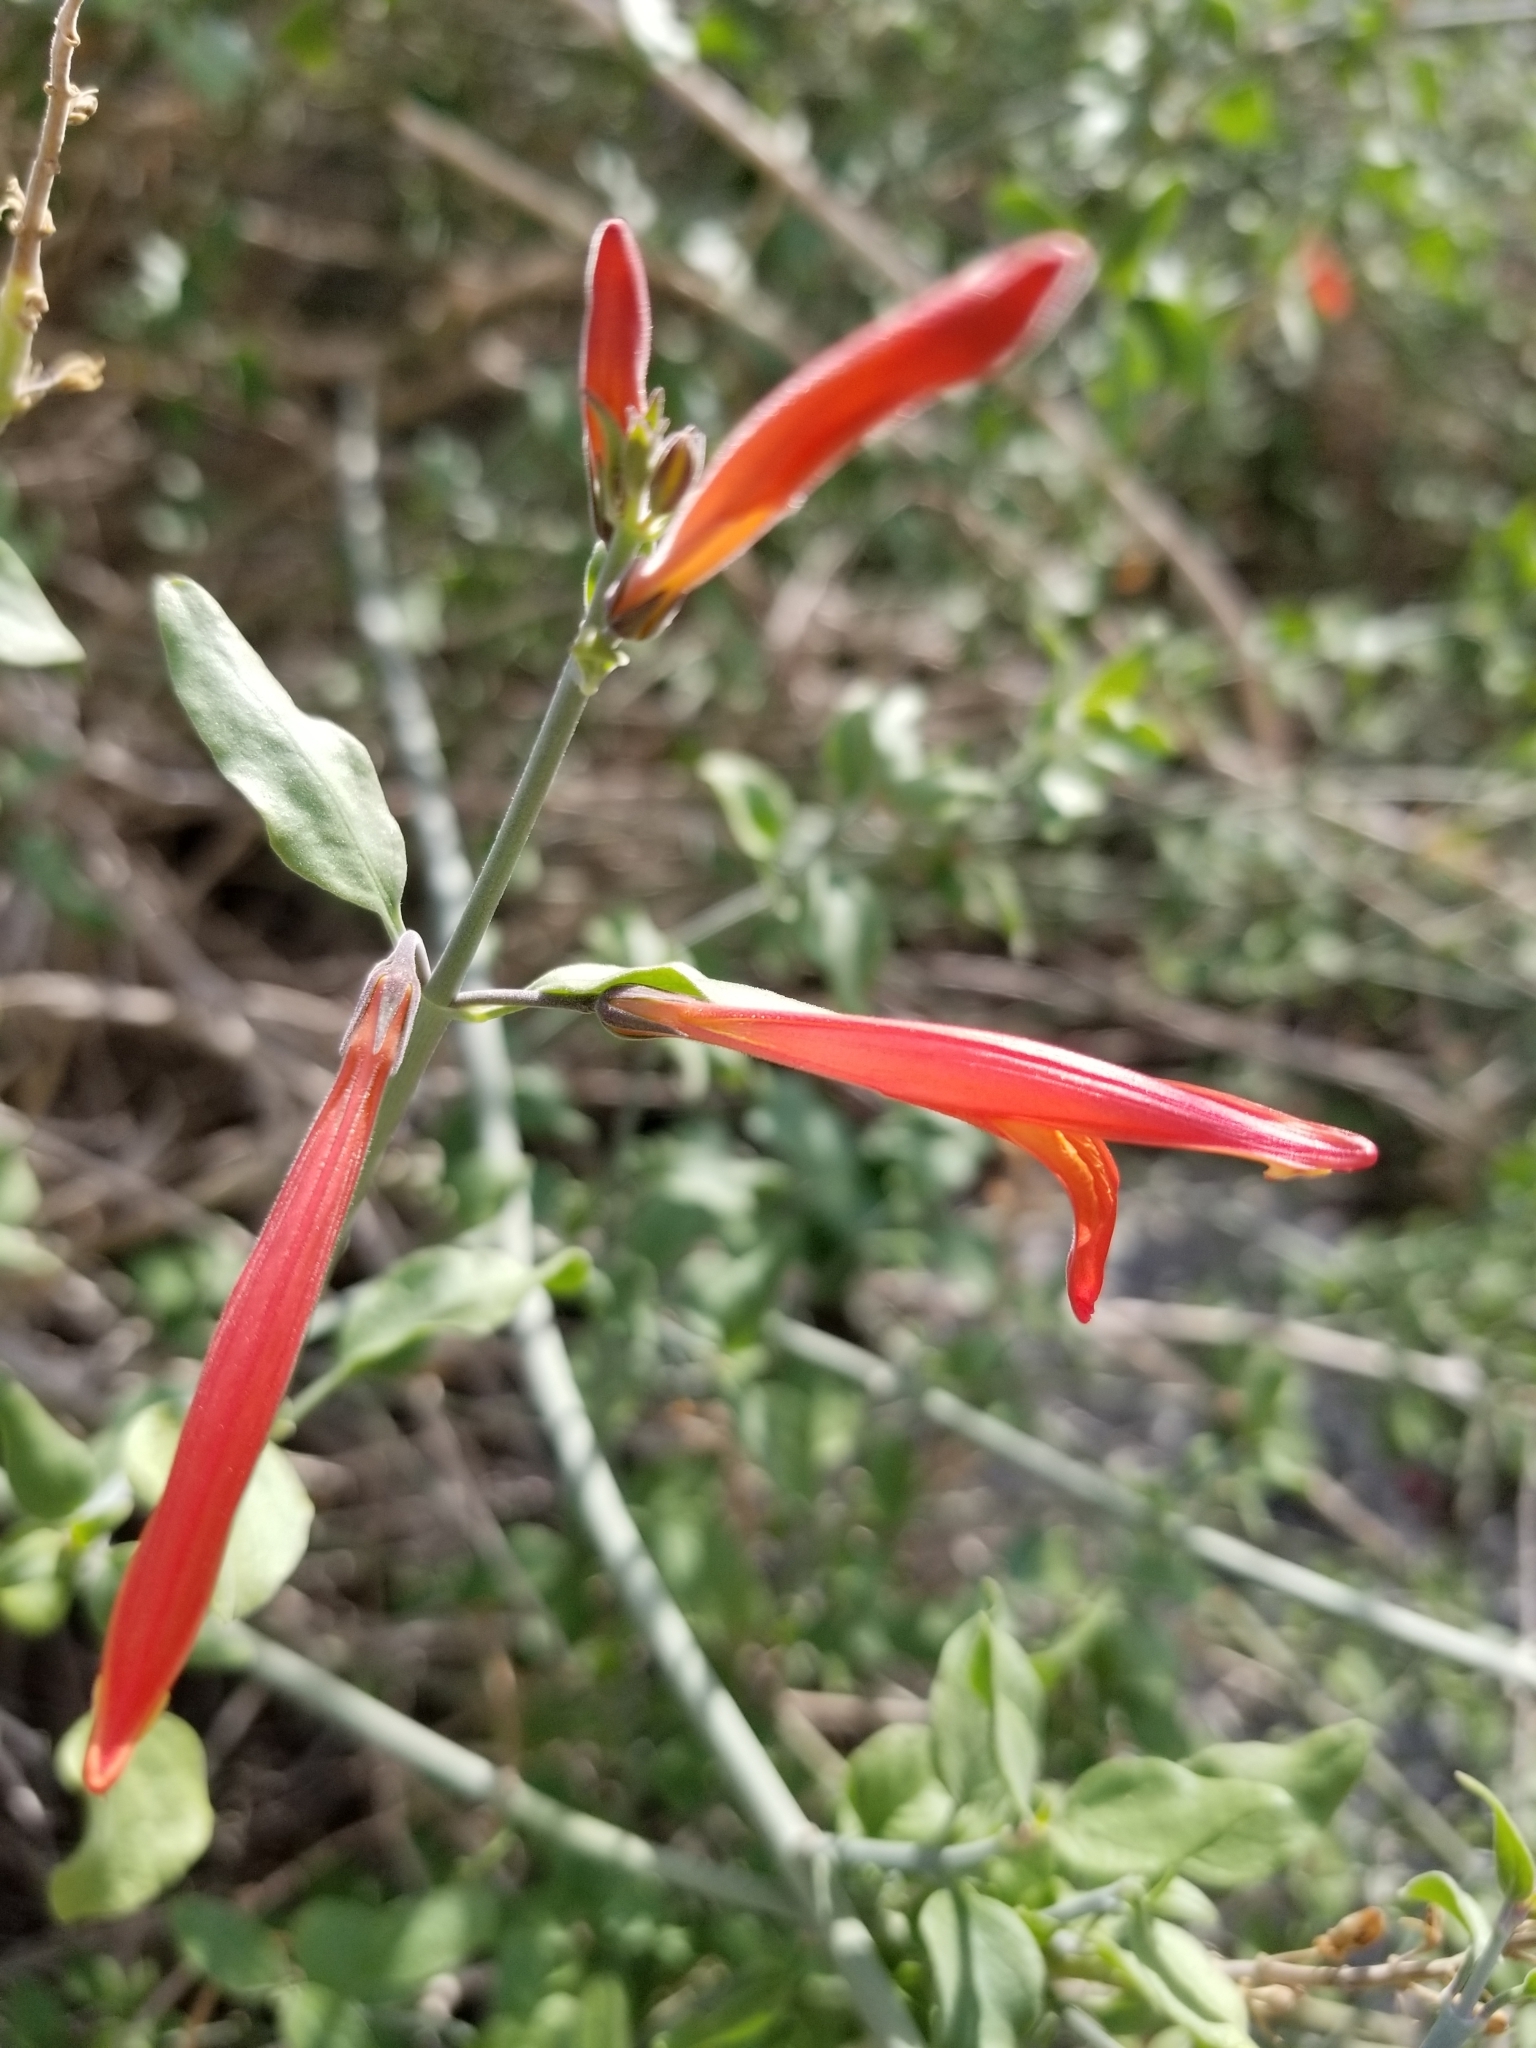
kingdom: Plantae
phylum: Tracheophyta
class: Magnoliopsida
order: Lamiales
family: Acanthaceae
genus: Justicia
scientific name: Justicia californica
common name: Chuparosa-honeysuckle
